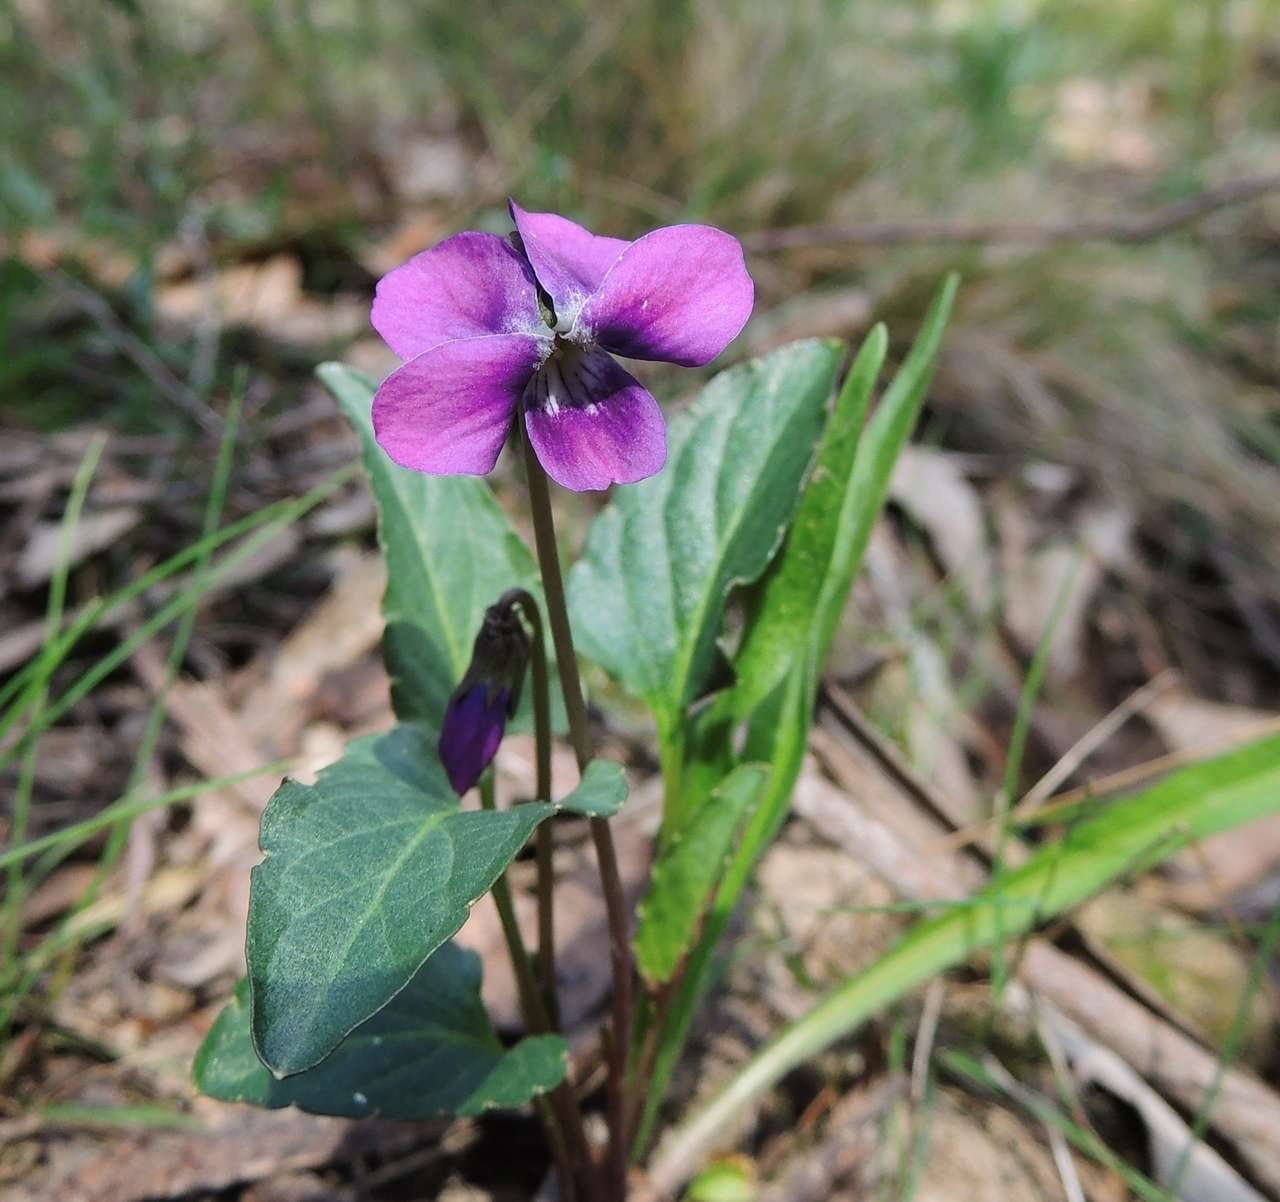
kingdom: Plantae
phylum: Tracheophyta
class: Magnoliopsida
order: Malpighiales
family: Violaceae
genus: Viola
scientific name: Viola betonicifolia
